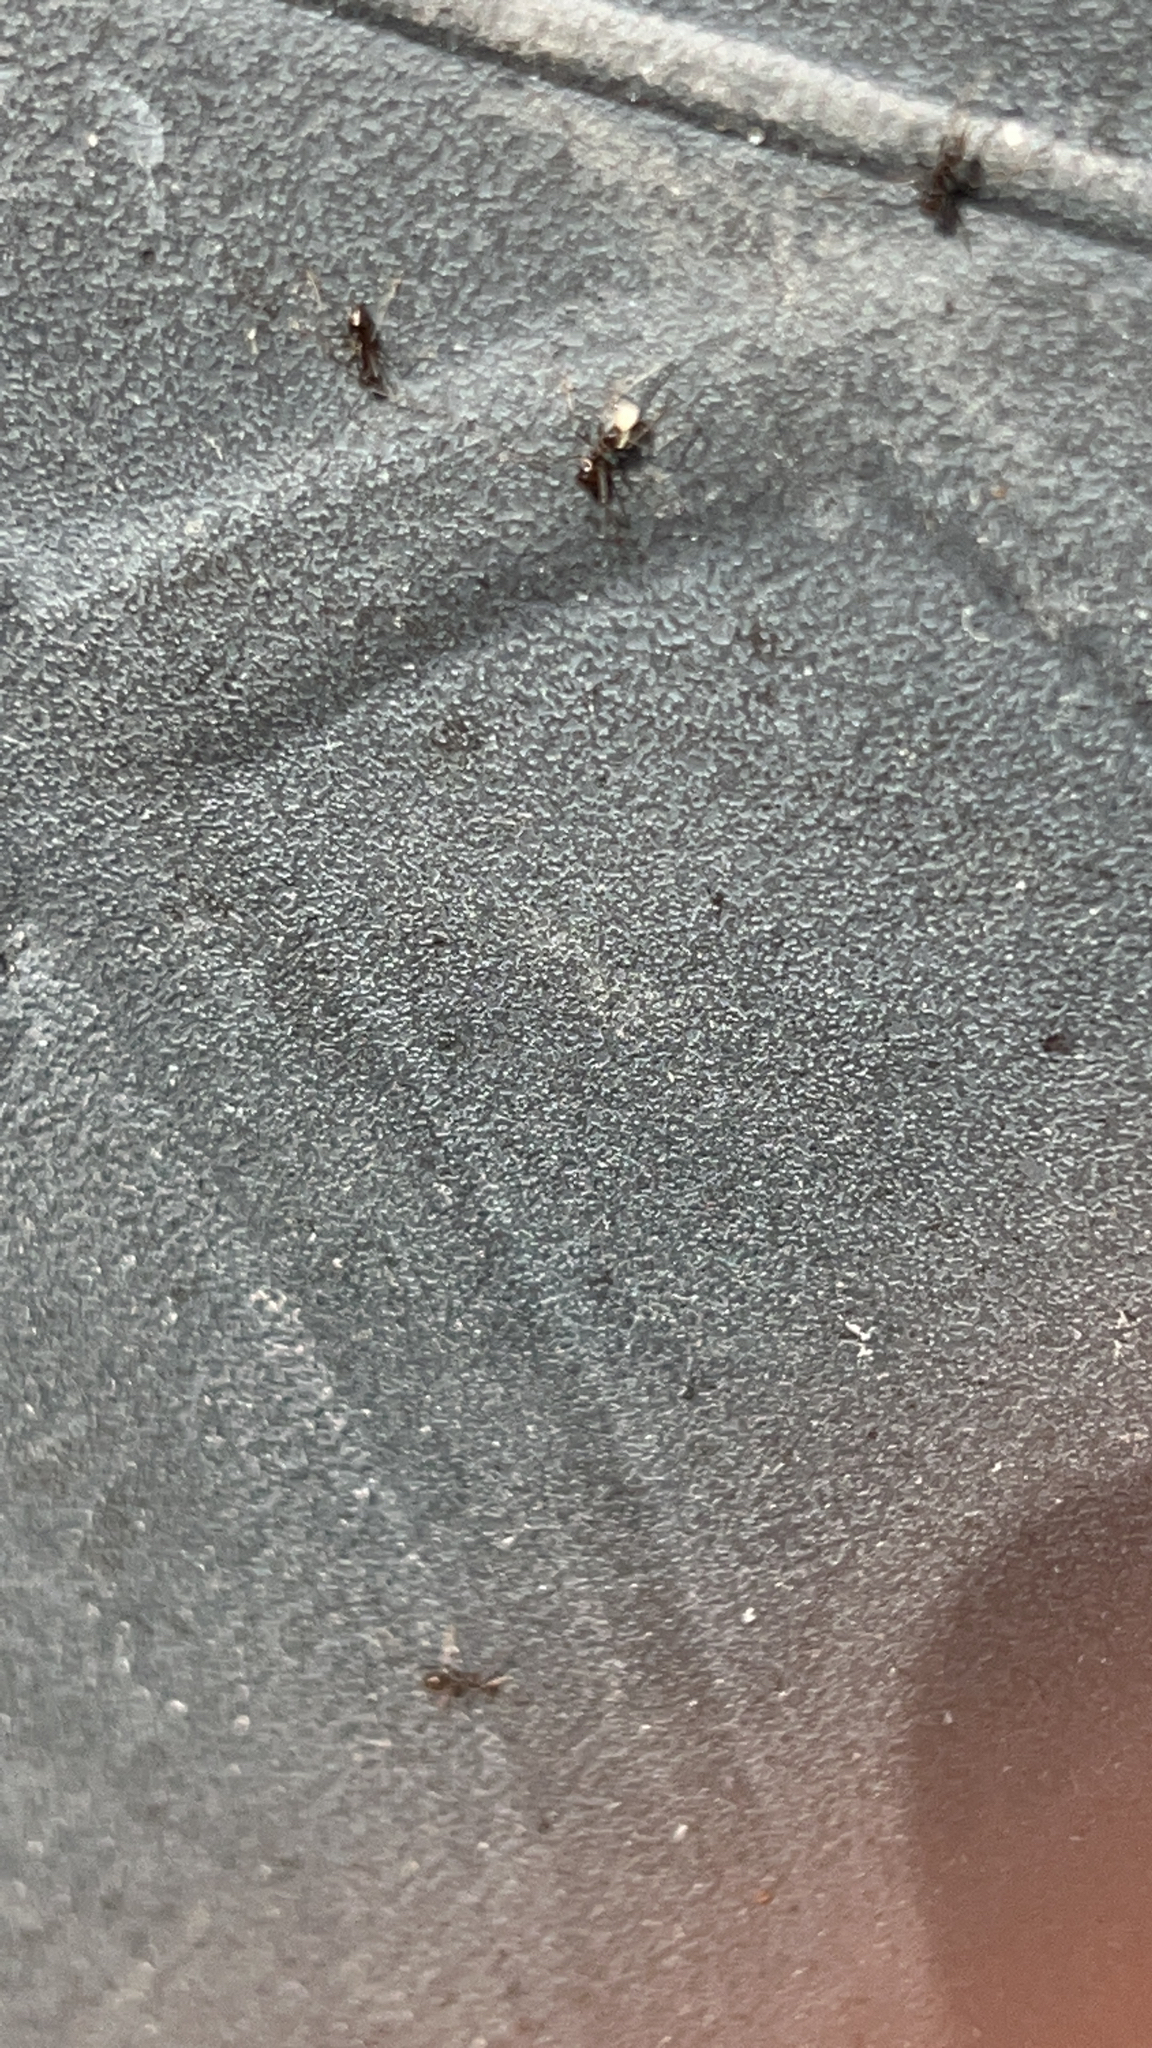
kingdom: Animalia
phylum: Arthropoda
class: Insecta
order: Hymenoptera
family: Formicidae
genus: Paratrechina
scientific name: Paratrechina longicornis
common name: Longhorned crazy ant
